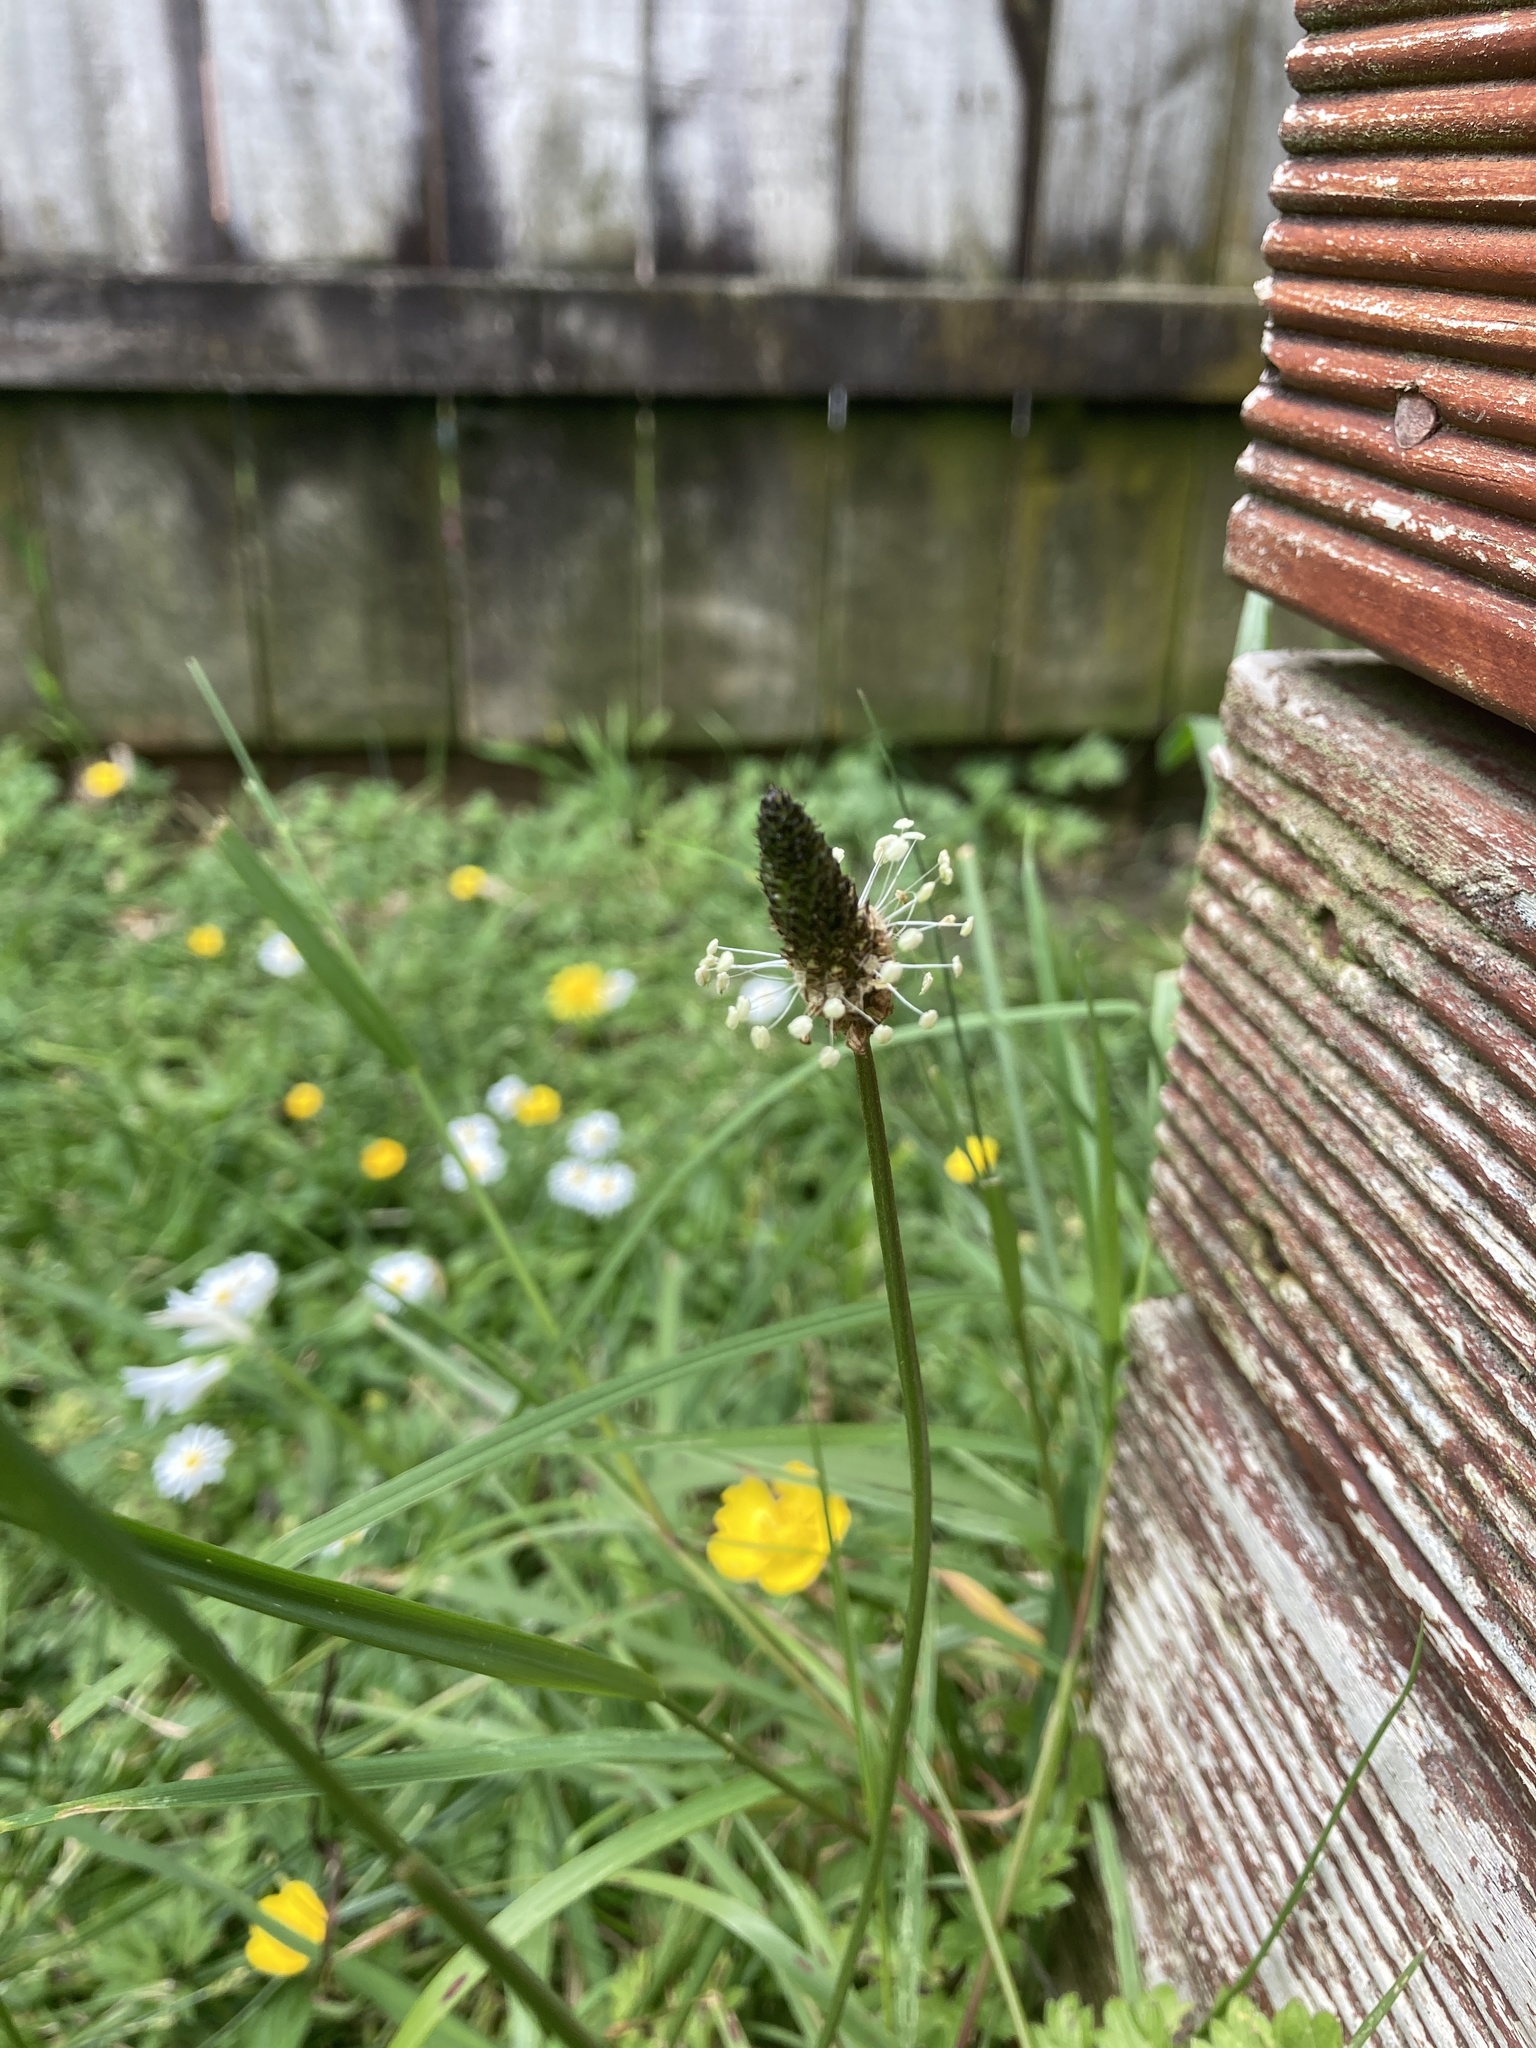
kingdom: Plantae
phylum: Tracheophyta
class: Magnoliopsida
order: Lamiales
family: Plantaginaceae
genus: Plantago
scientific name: Plantago lanceolata
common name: Ribwort plantain
